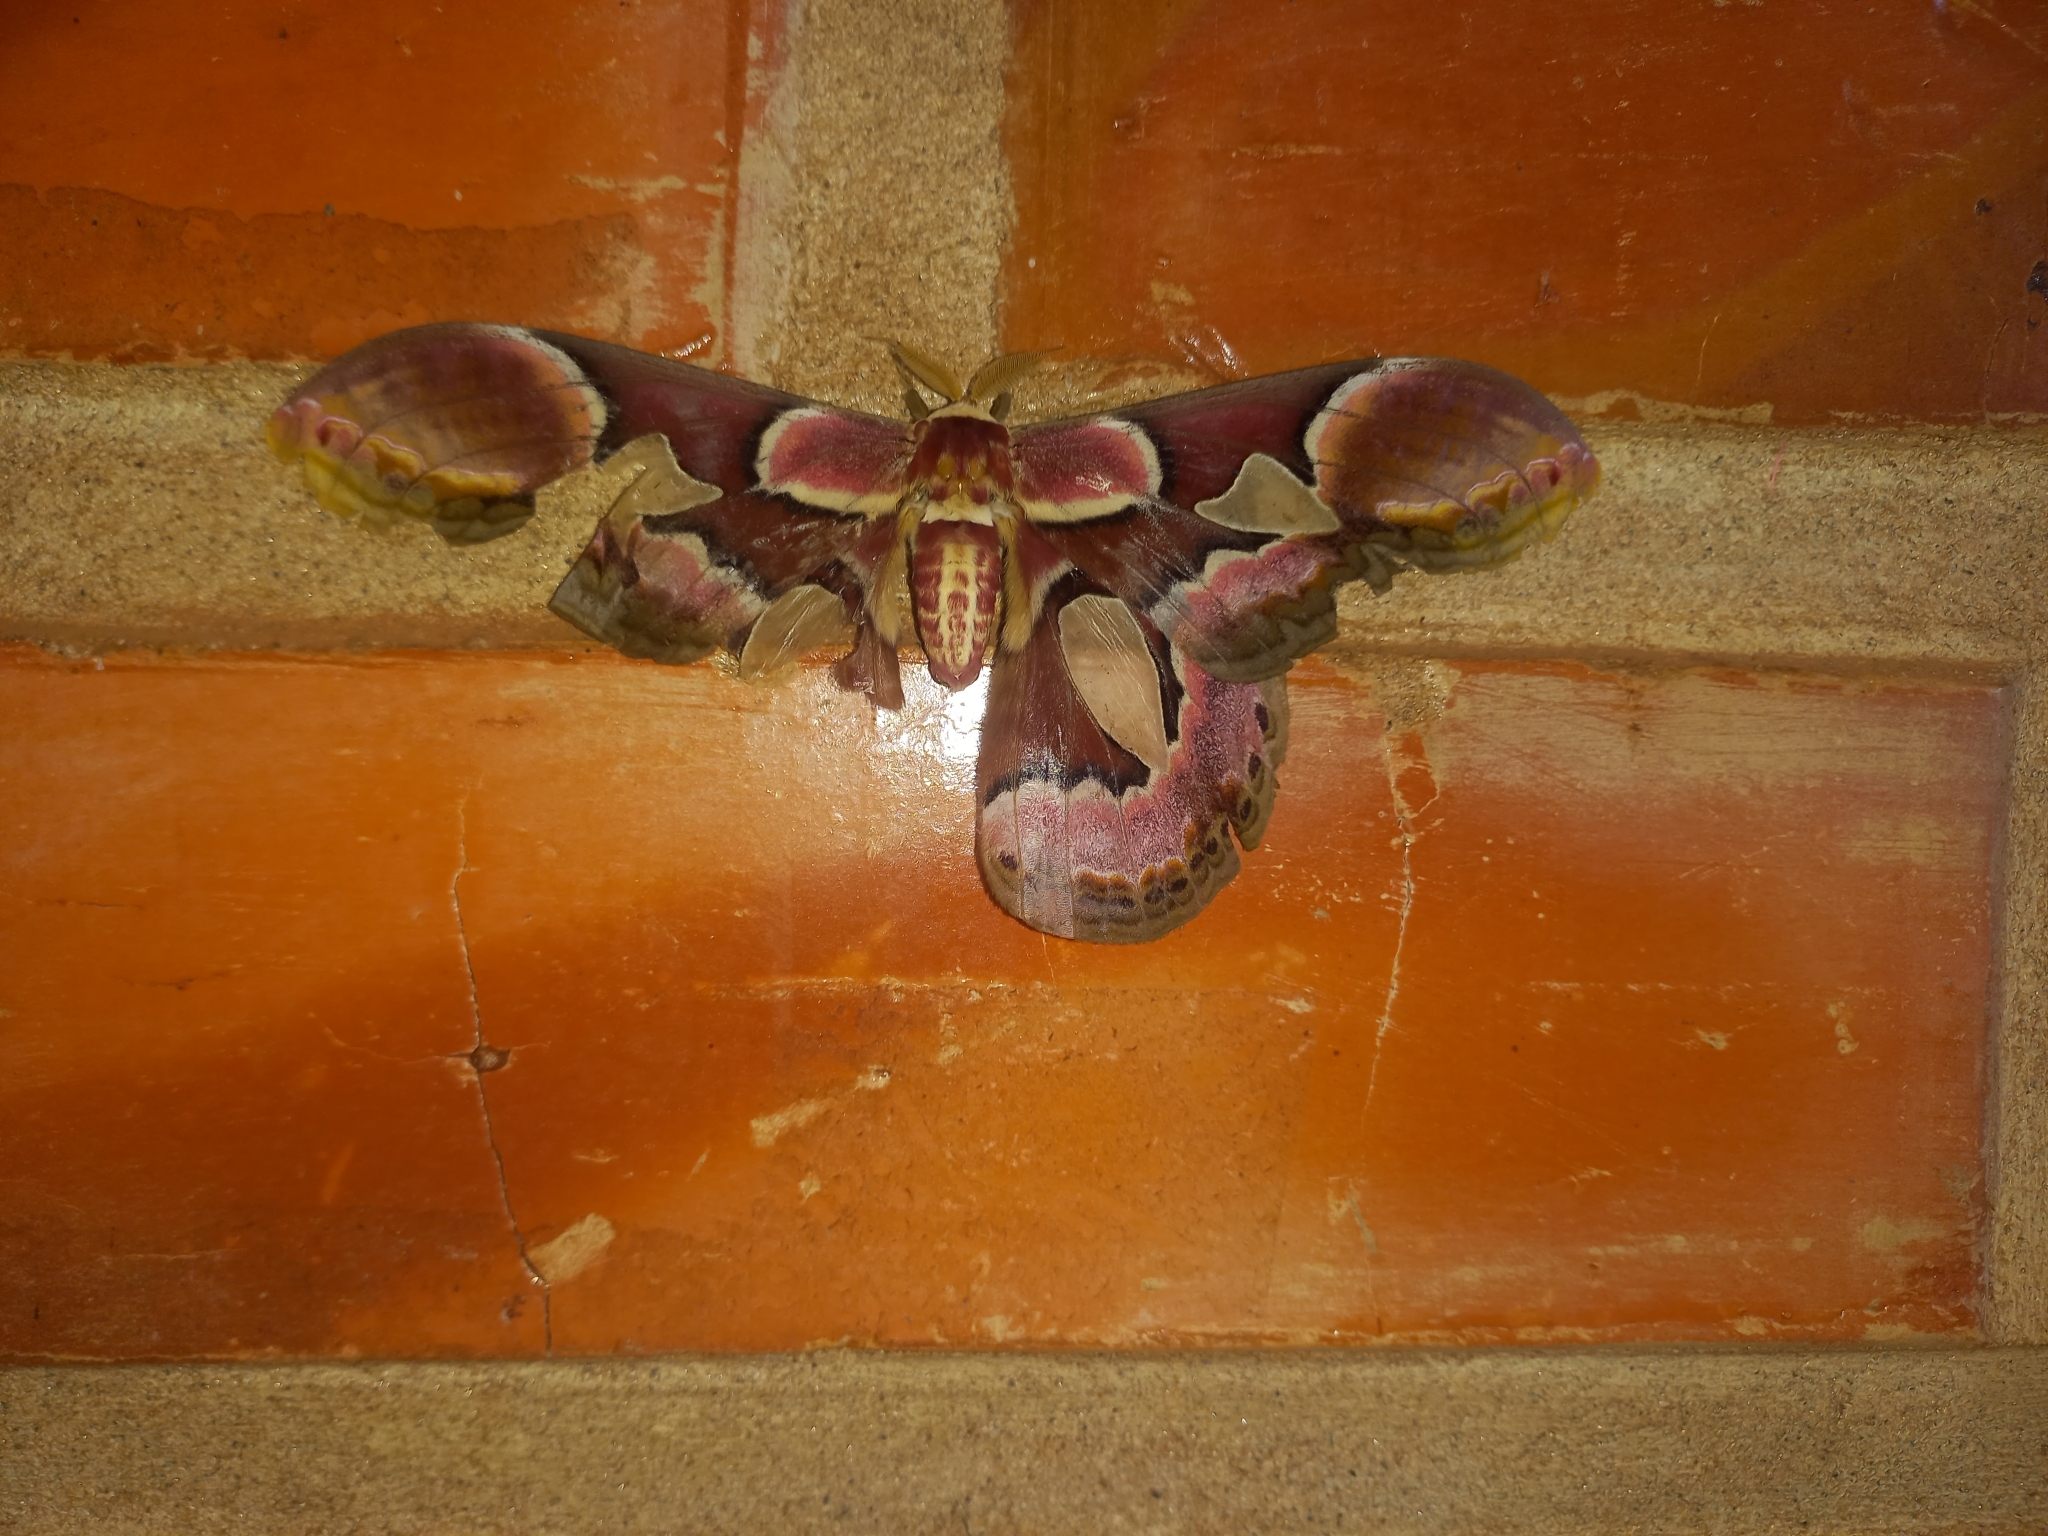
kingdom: Animalia
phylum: Arthropoda
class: Insecta
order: Lepidoptera
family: Saturniidae
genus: Rothschildia
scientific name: Rothschildia erycina
